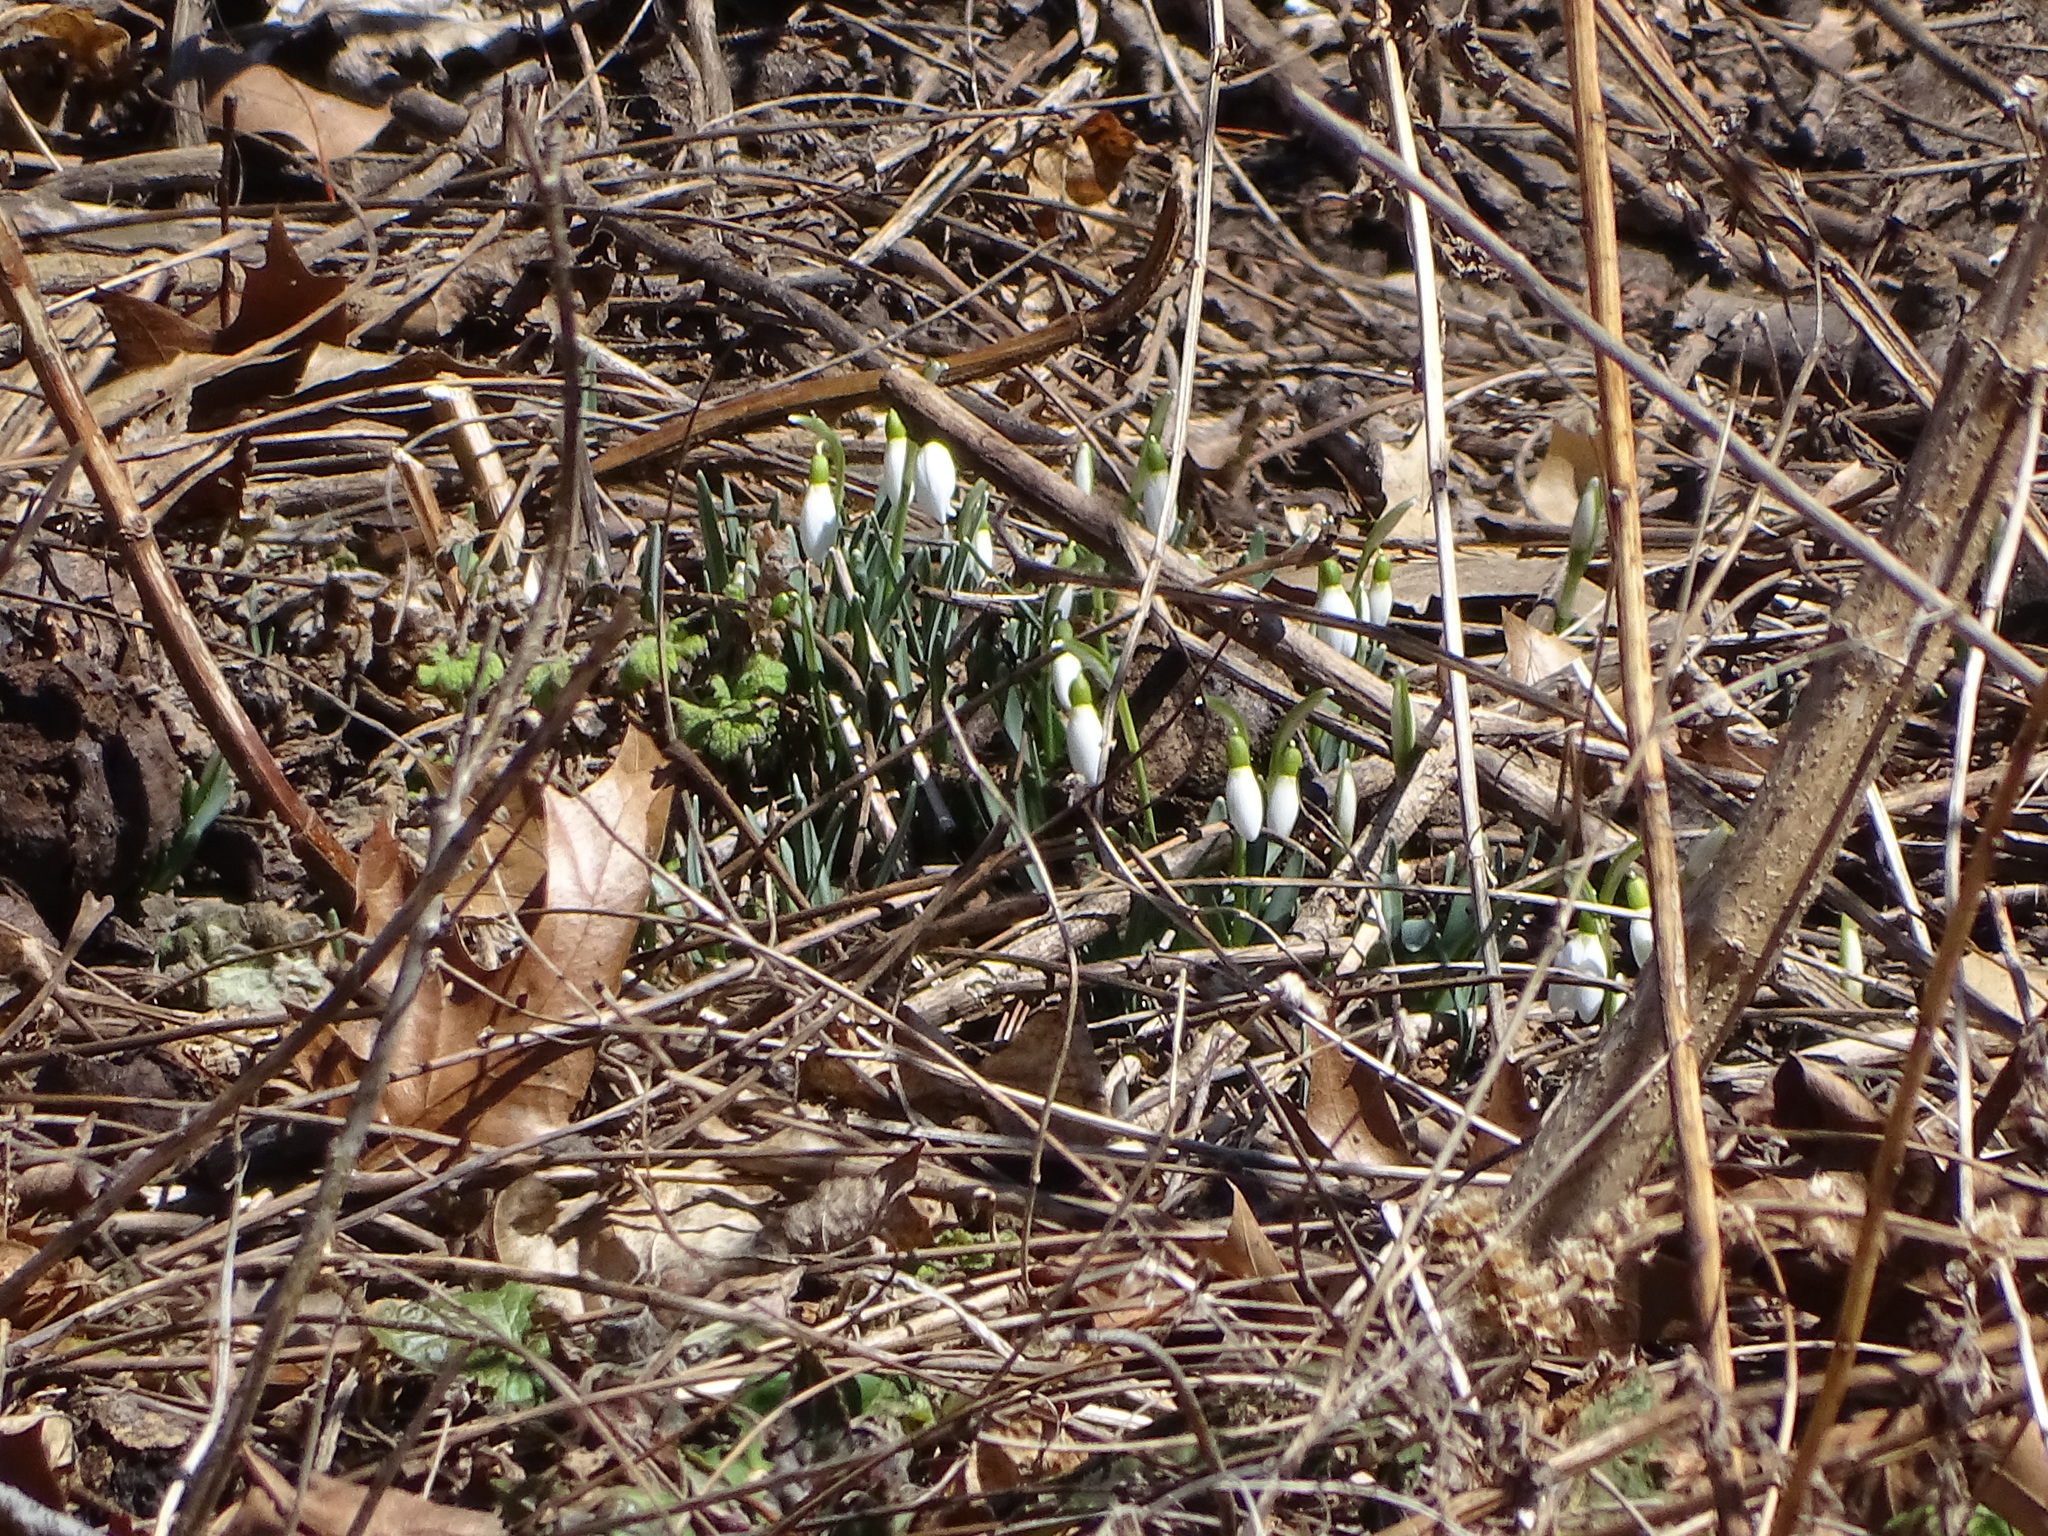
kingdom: Plantae
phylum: Tracheophyta
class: Liliopsida
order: Asparagales
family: Amaryllidaceae
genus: Galanthus
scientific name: Galanthus nivalis
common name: Snowdrop
